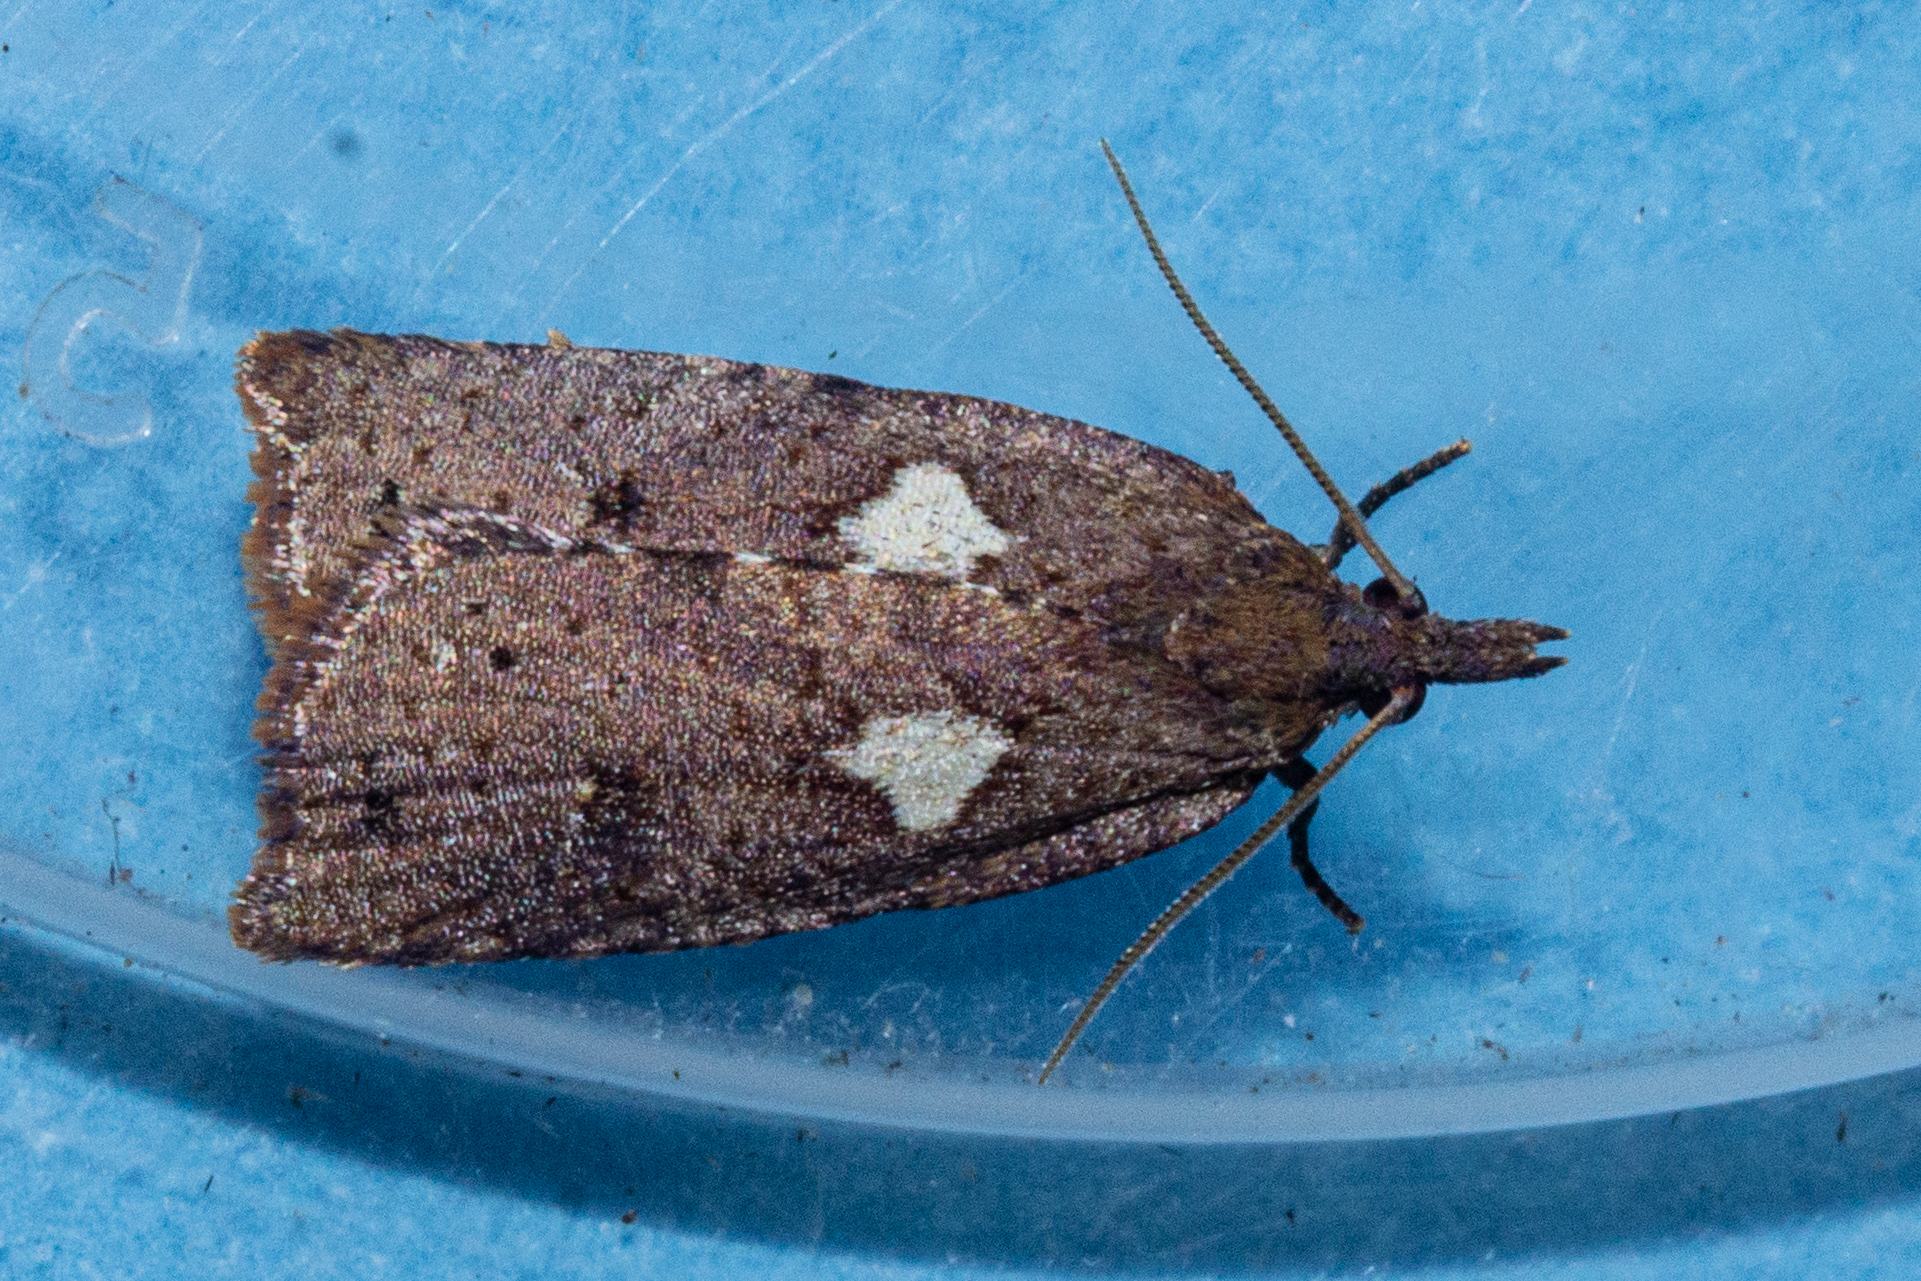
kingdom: Animalia
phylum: Arthropoda
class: Insecta
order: Lepidoptera
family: Tortricidae
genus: Planotortrix
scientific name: Planotortrix notophaea
